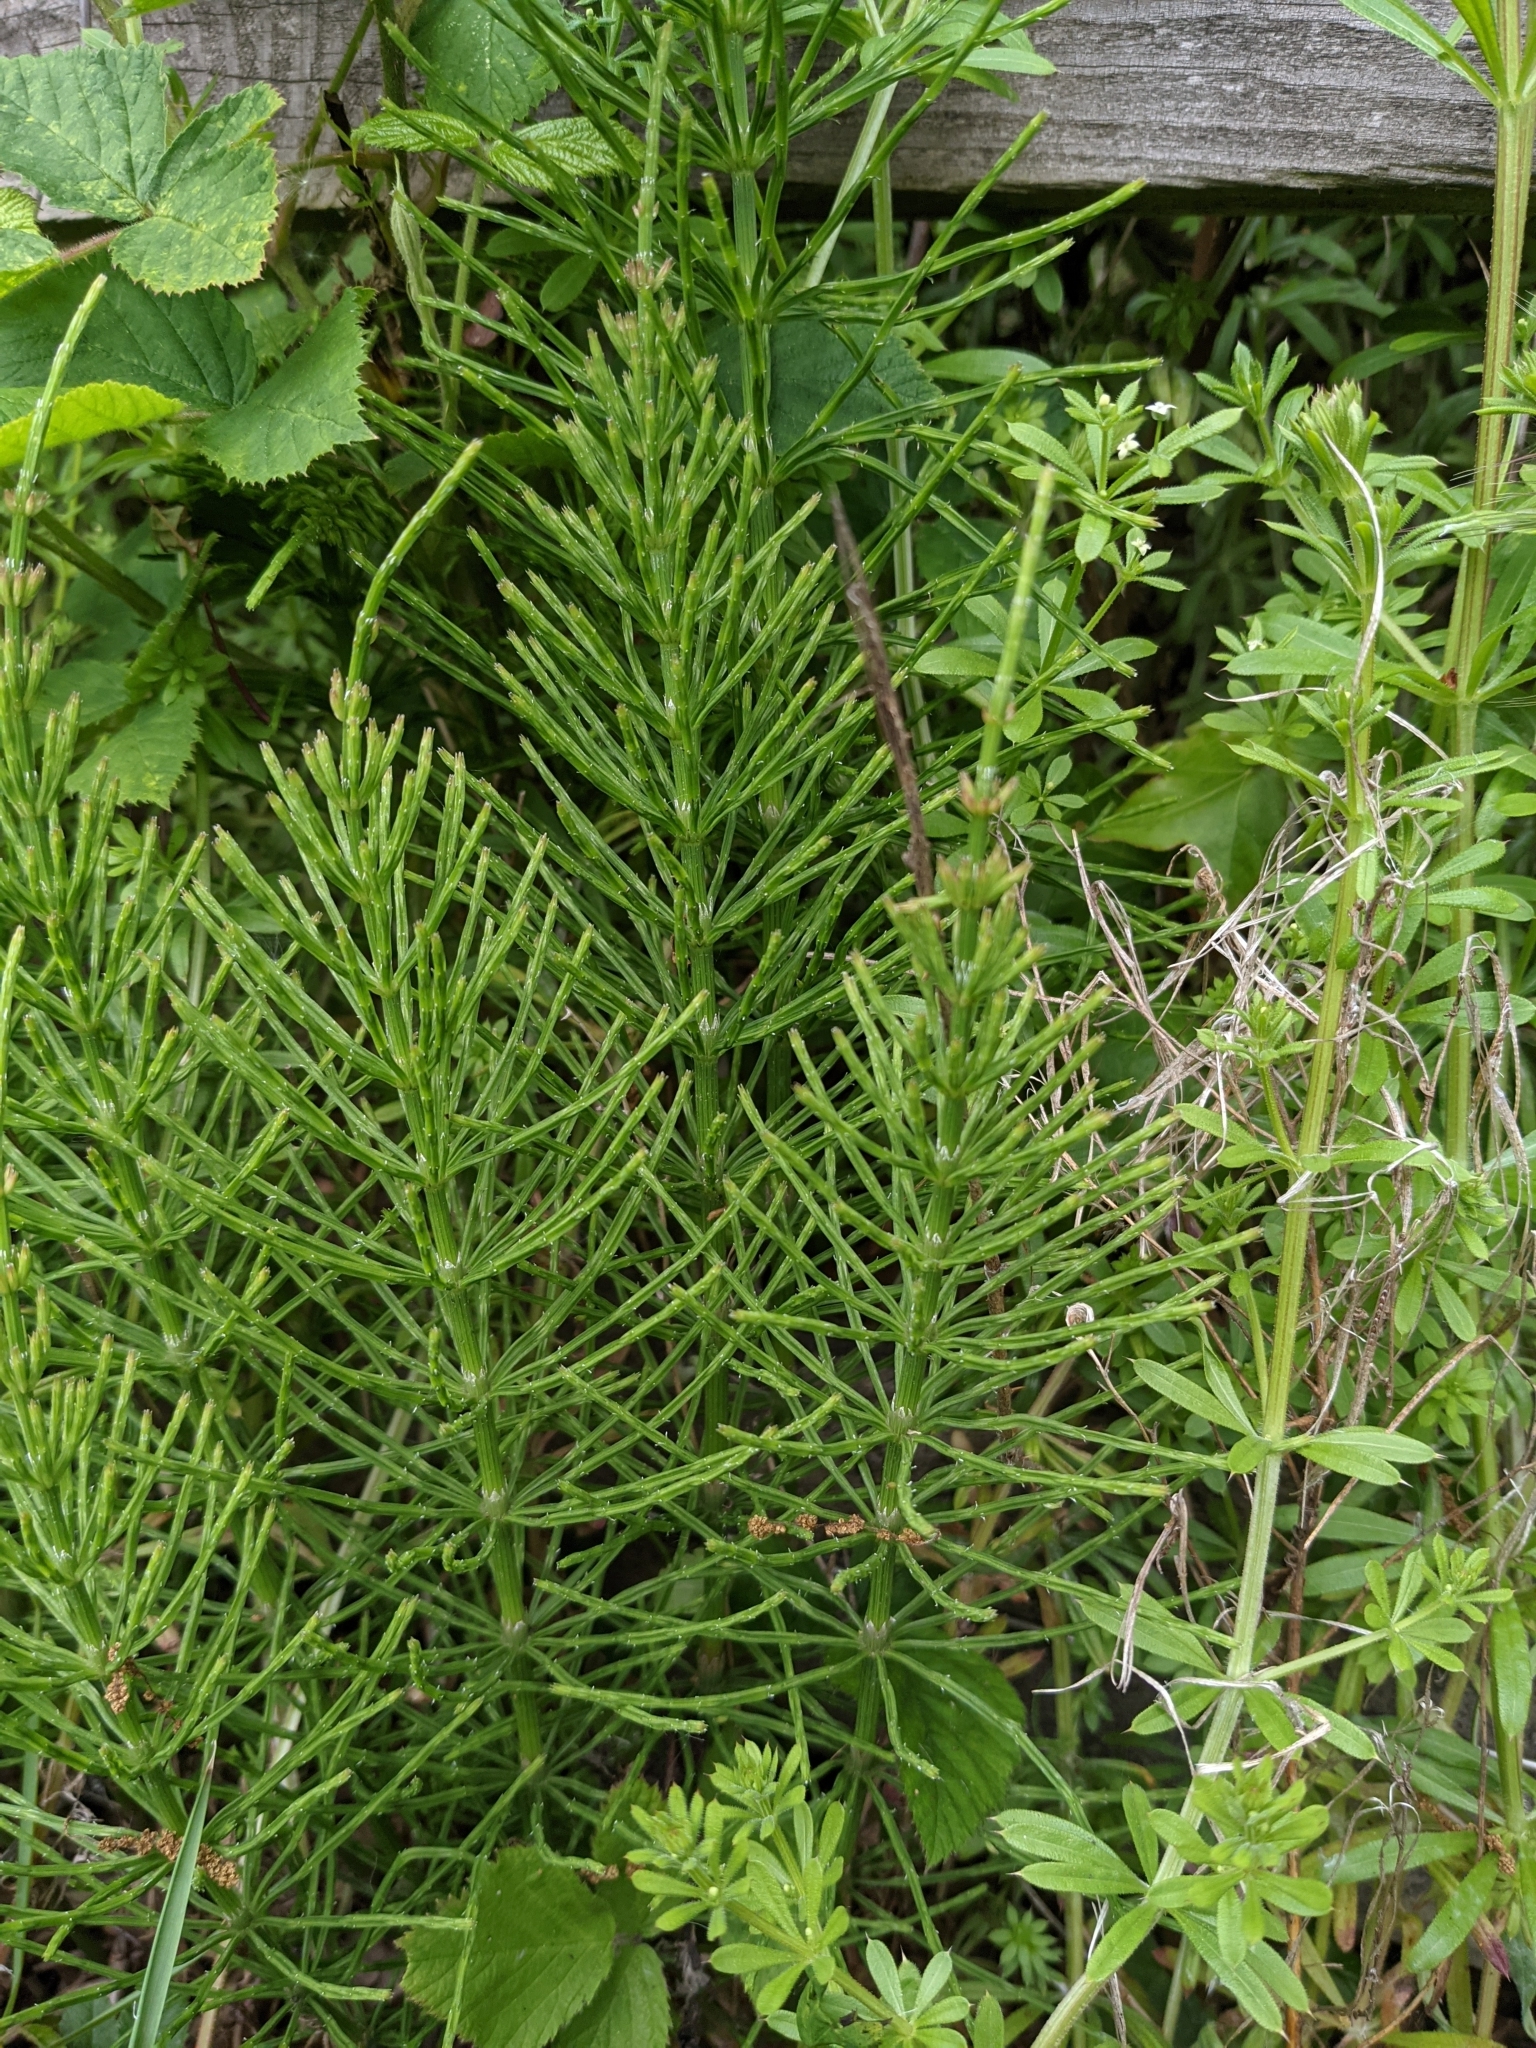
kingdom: Plantae
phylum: Tracheophyta
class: Polypodiopsida
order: Equisetales
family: Equisetaceae
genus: Equisetum
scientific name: Equisetum arvense
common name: Field horsetail
